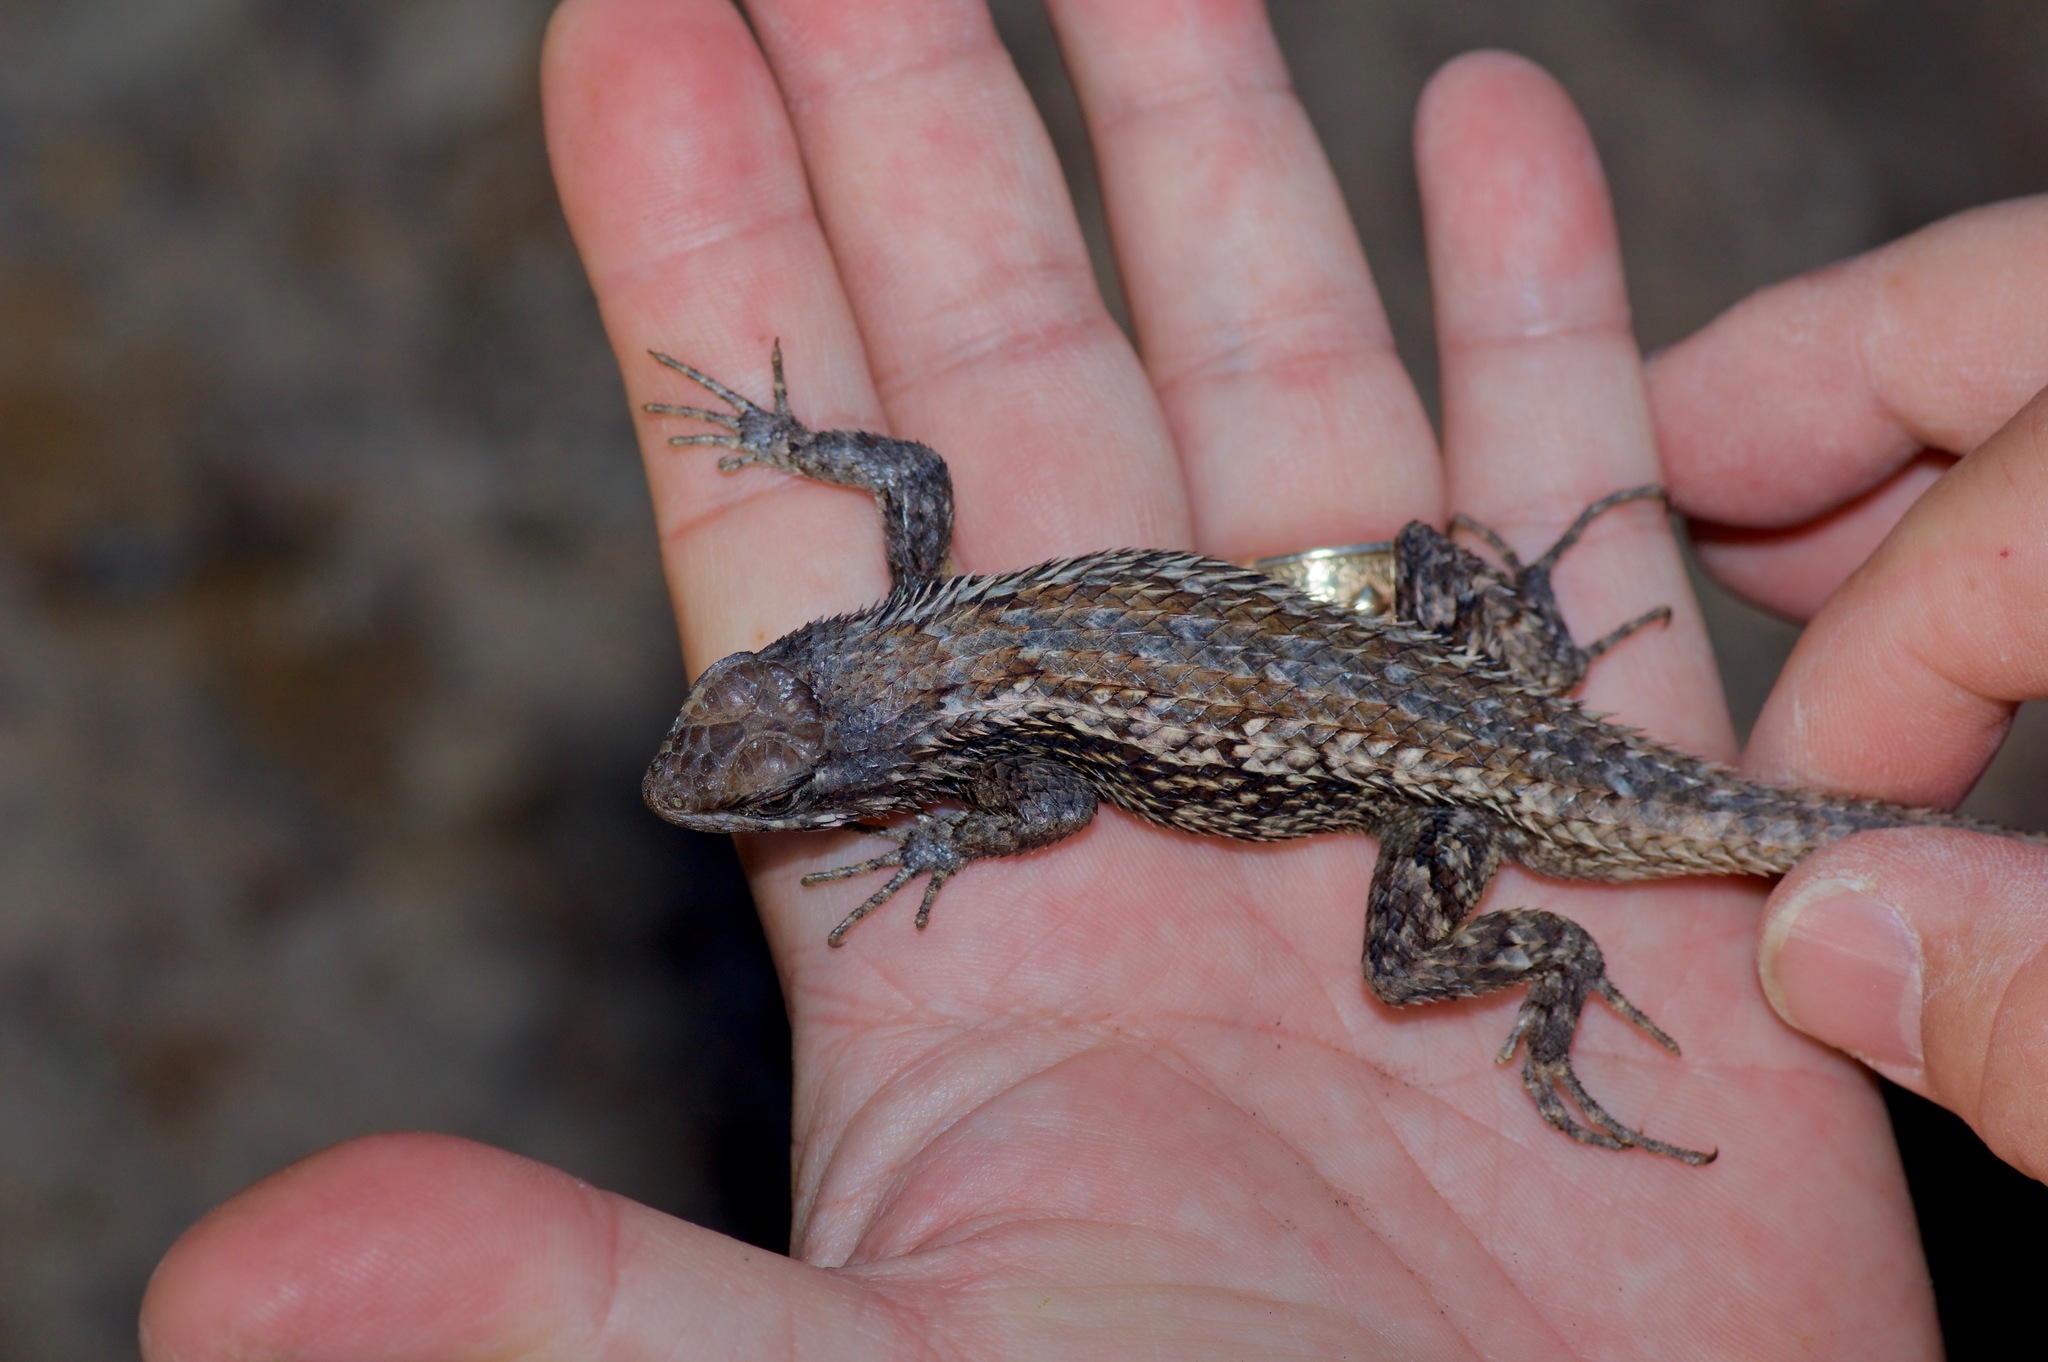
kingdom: Animalia
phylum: Chordata
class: Squamata
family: Phrynosomatidae
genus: Sceloporus
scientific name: Sceloporus olivaceus
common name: Texas spiny lizard
